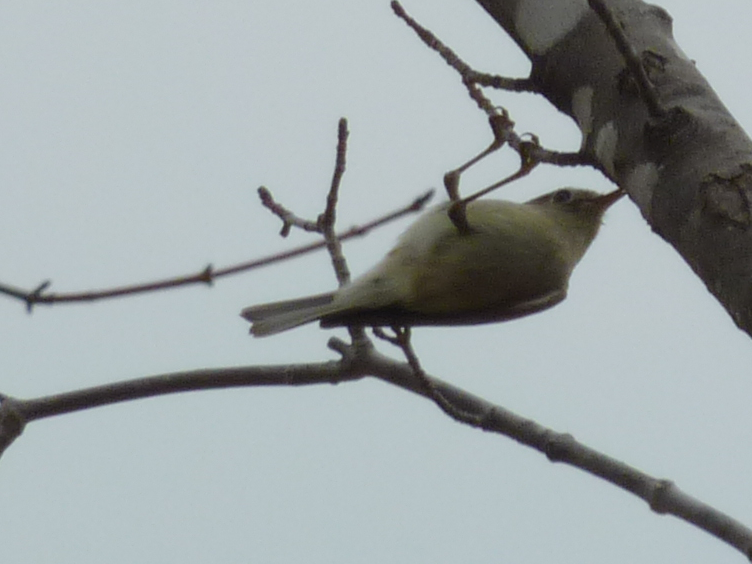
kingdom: Animalia
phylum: Chordata
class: Aves
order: Passeriformes
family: Regulidae
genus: Regulus
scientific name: Regulus calendula
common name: Ruby-crowned kinglet
